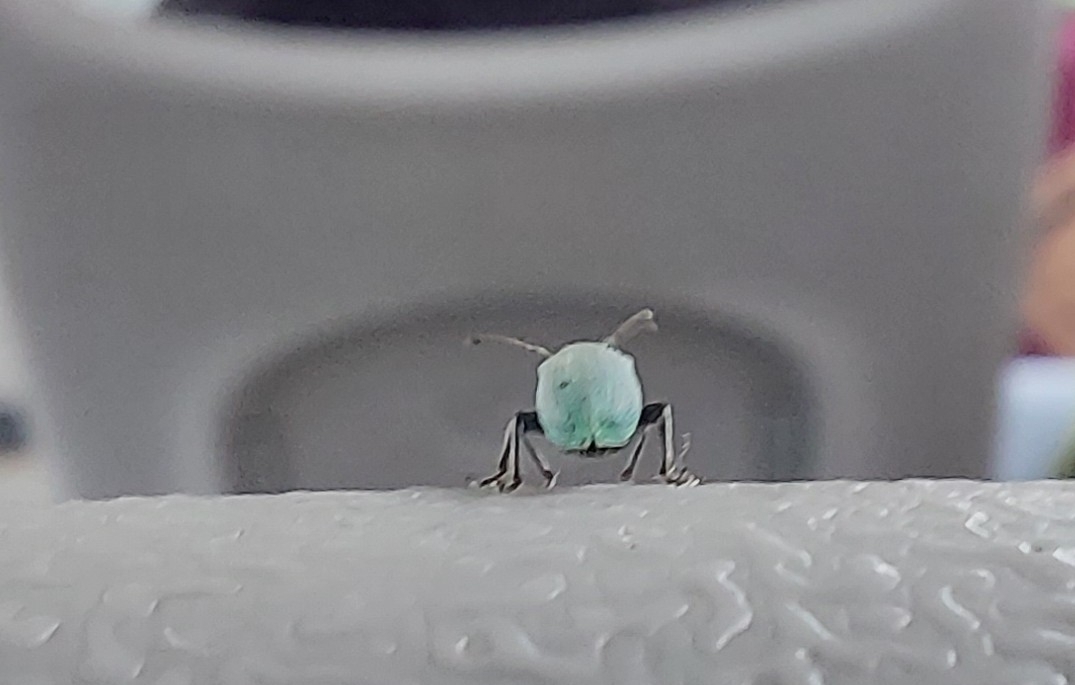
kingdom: Animalia
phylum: Arthropoda
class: Insecta
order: Coleoptera
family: Curculionidae
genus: Phyllobius
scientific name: Phyllobius maculicornis
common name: Green leaf weevil
